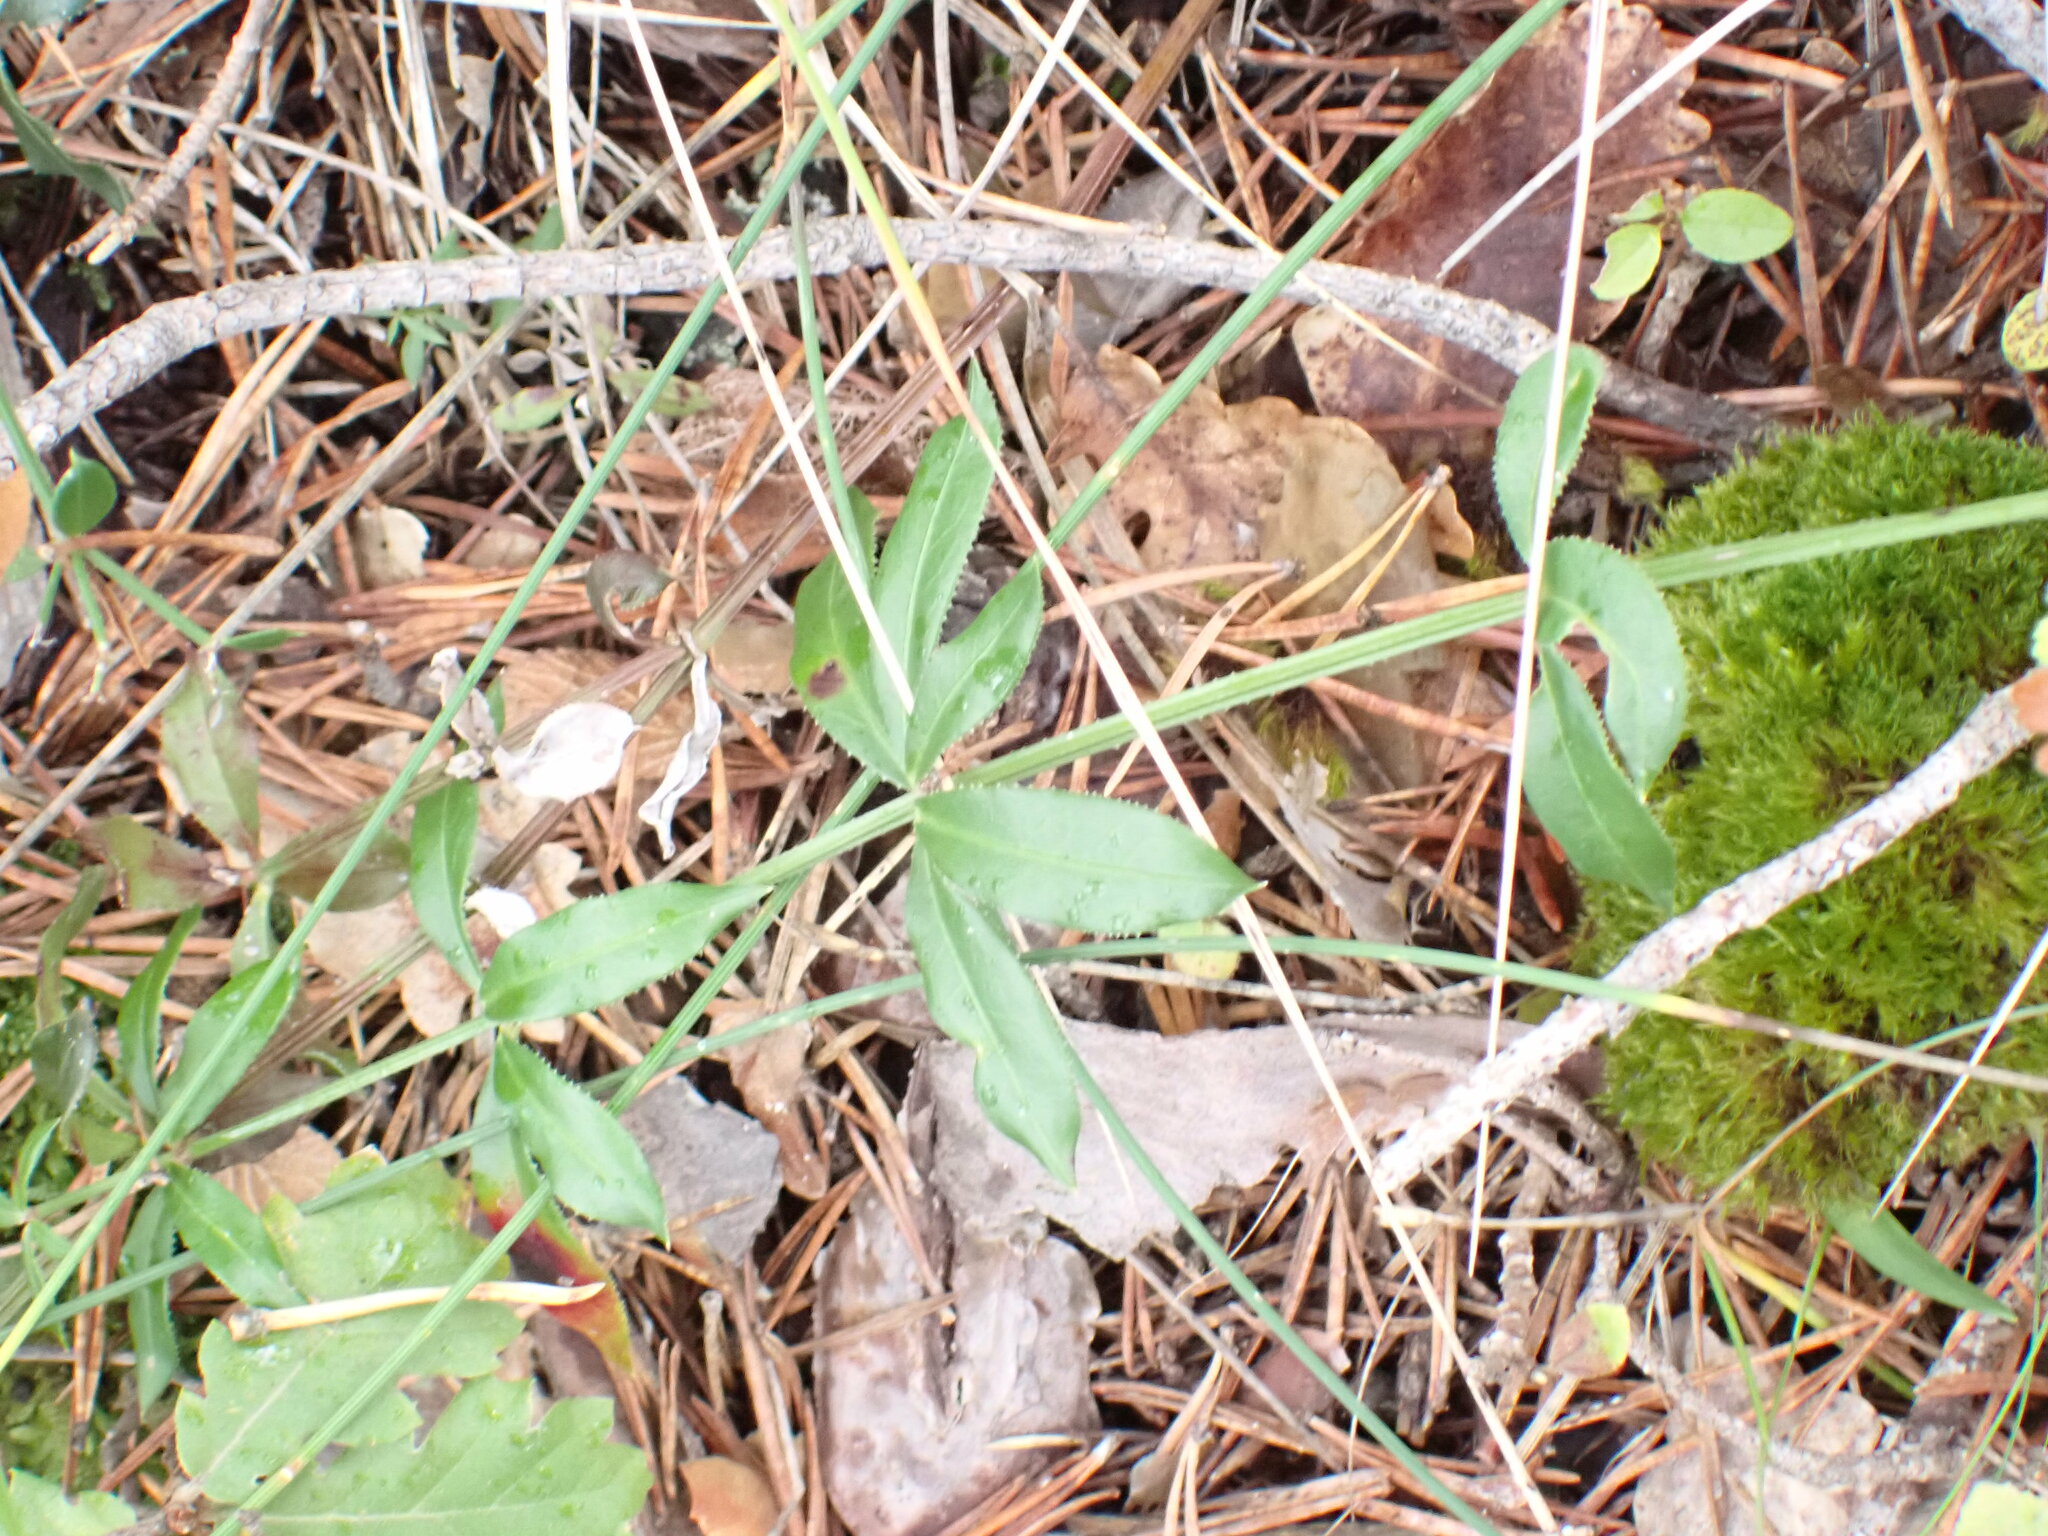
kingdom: Plantae
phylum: Tracheophyta
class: Magnoliopsida
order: Gentianales
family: Rubiaceae
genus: Rubia
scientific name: Rubia peregrina
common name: Wild madder
